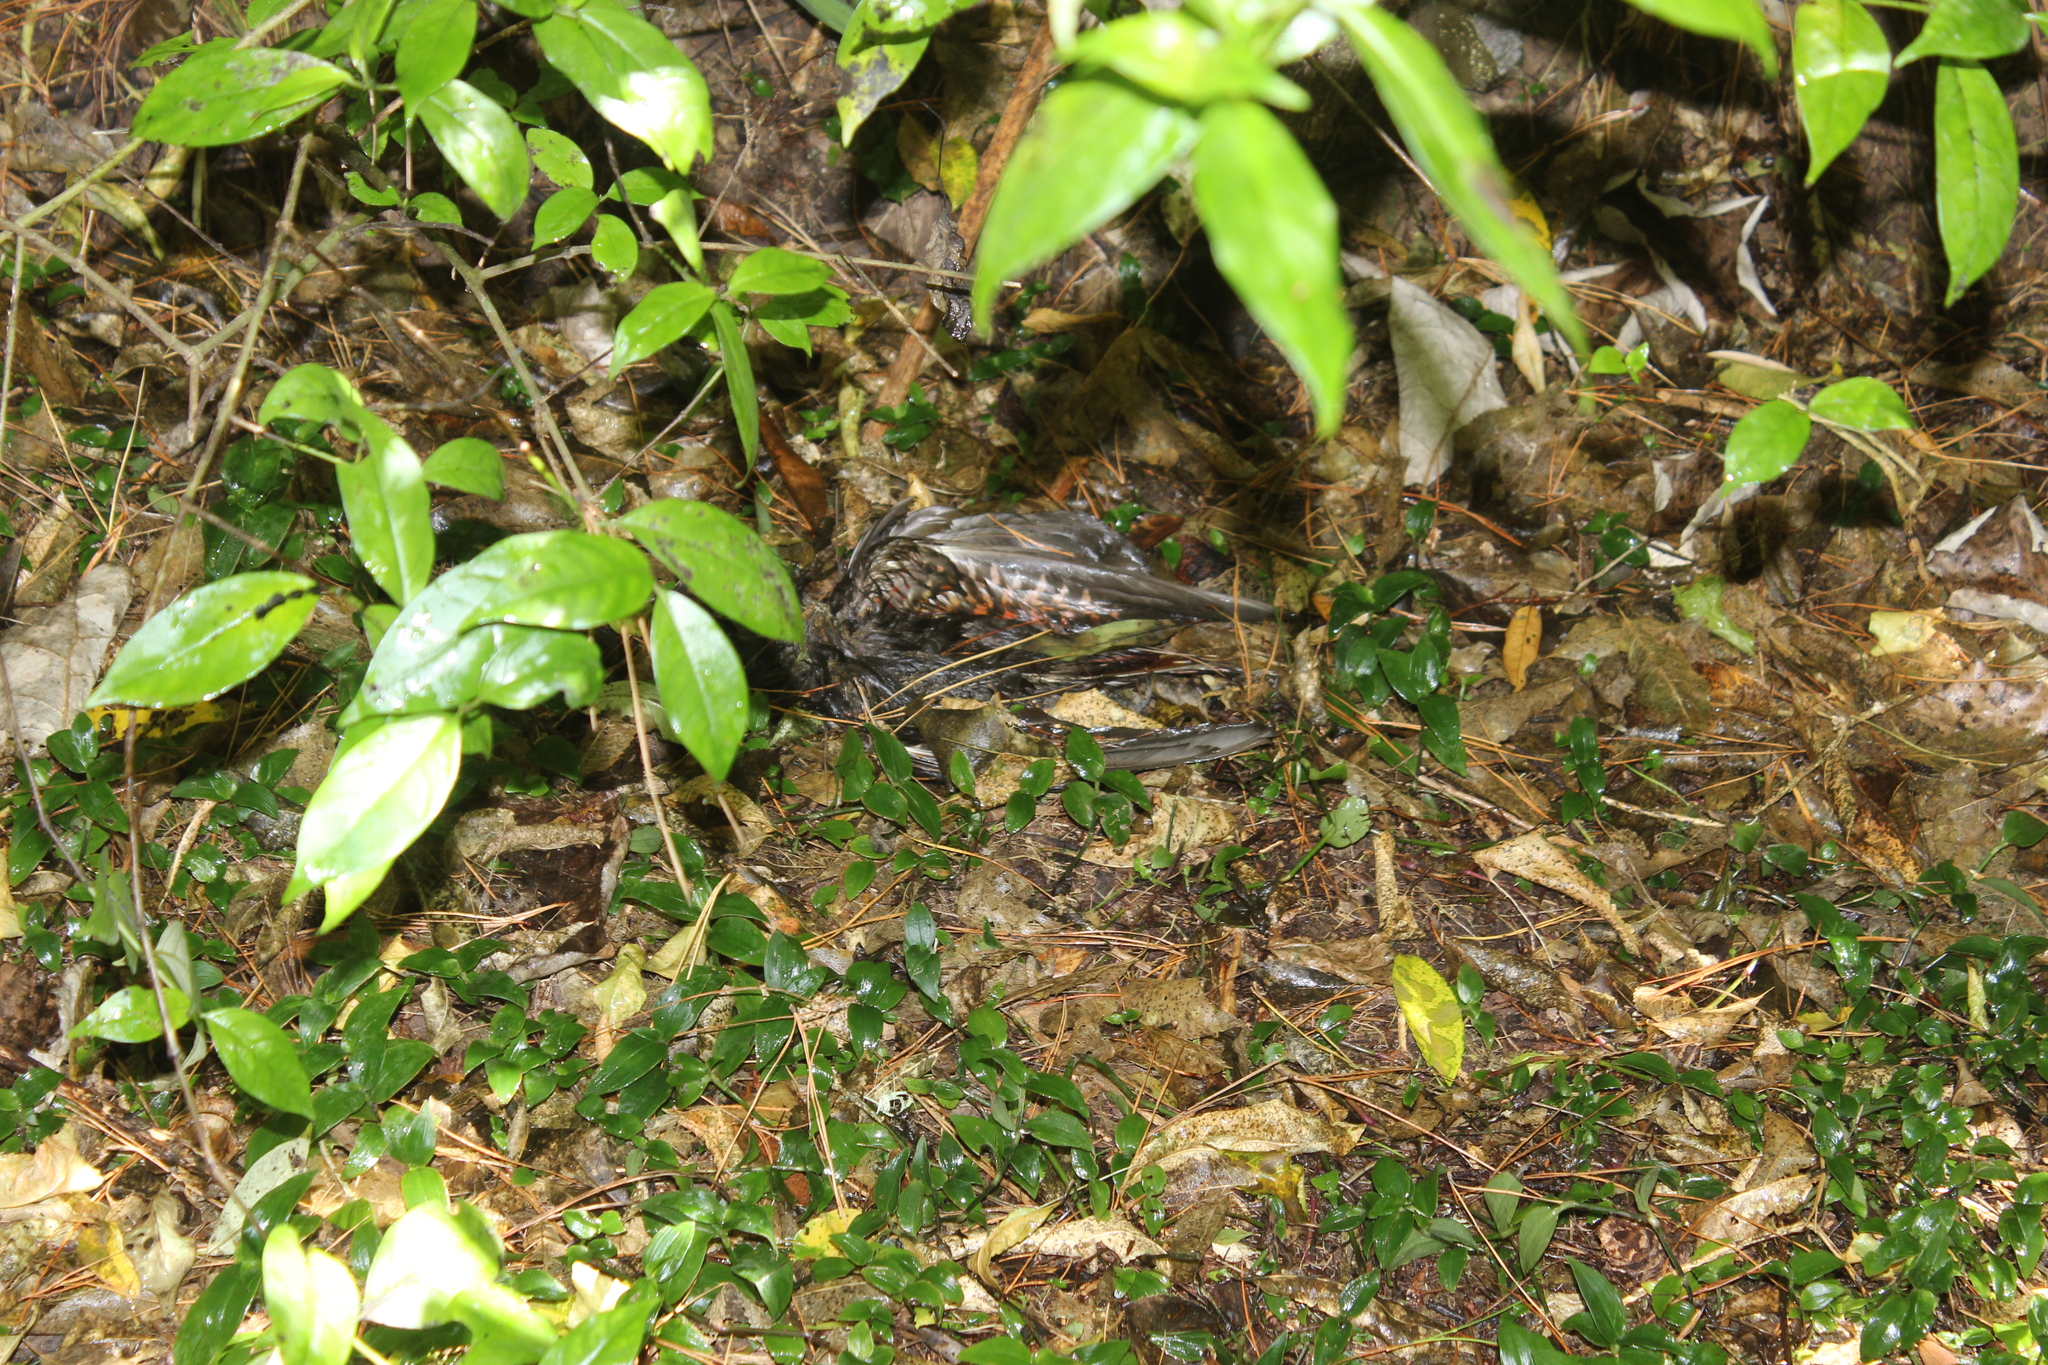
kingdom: Animalia
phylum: Chordata
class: Aves
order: Psittaciformes
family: Psittacidae
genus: Nestor
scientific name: Nestor meridionalis
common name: New zealand kaka
